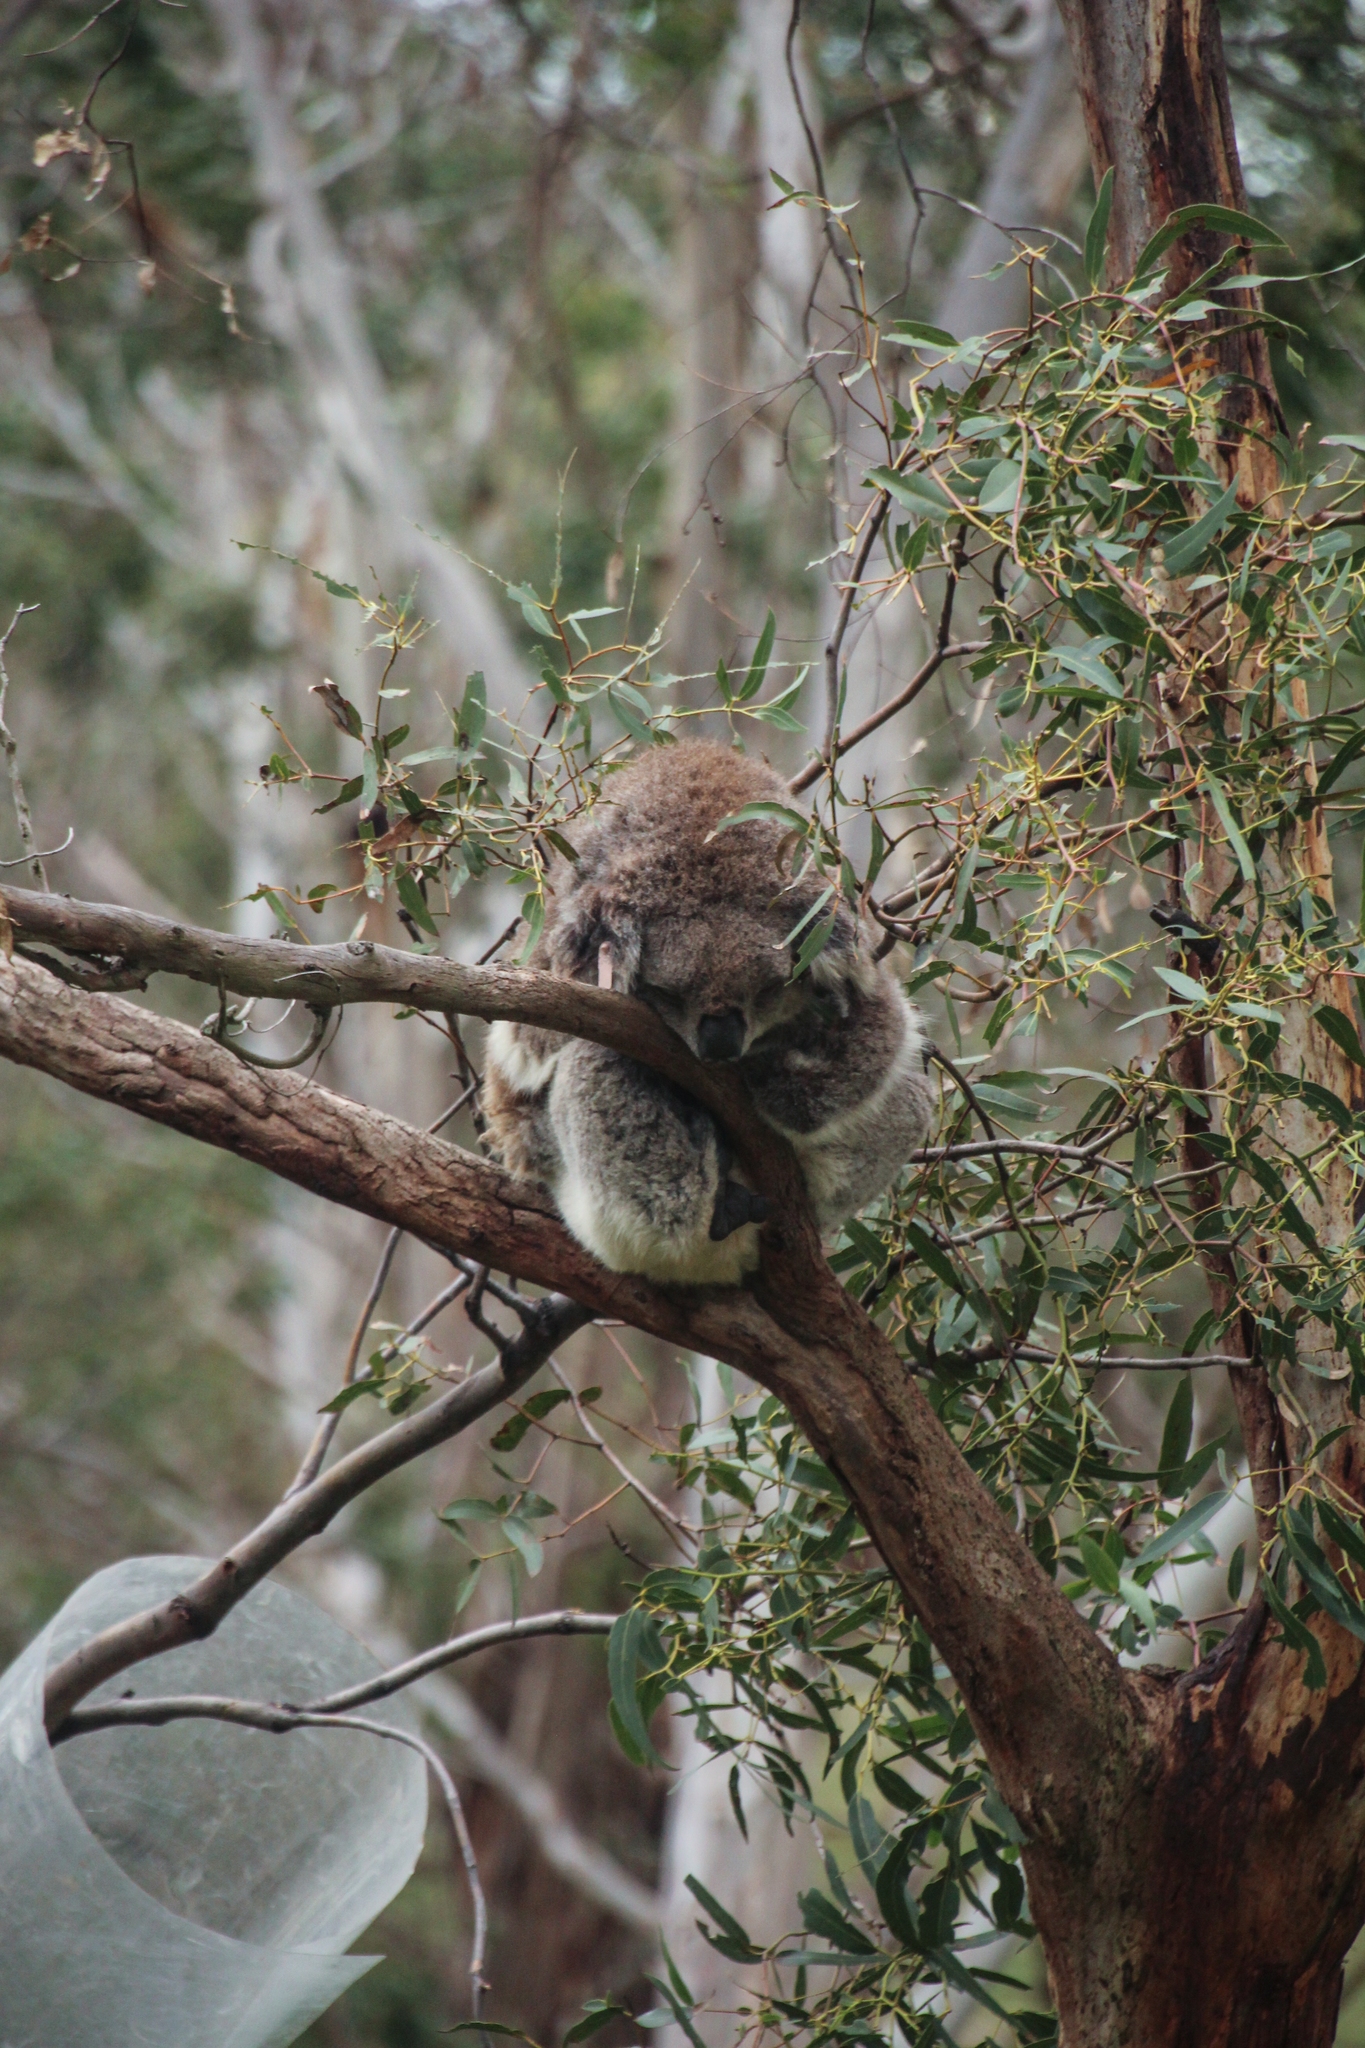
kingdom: Animalia
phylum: Chordata
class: Mammalia
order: Diprotodontia
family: Phascolarctidae
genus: Phascolarctos
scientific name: Phascolarctos cinereus
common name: Koala
